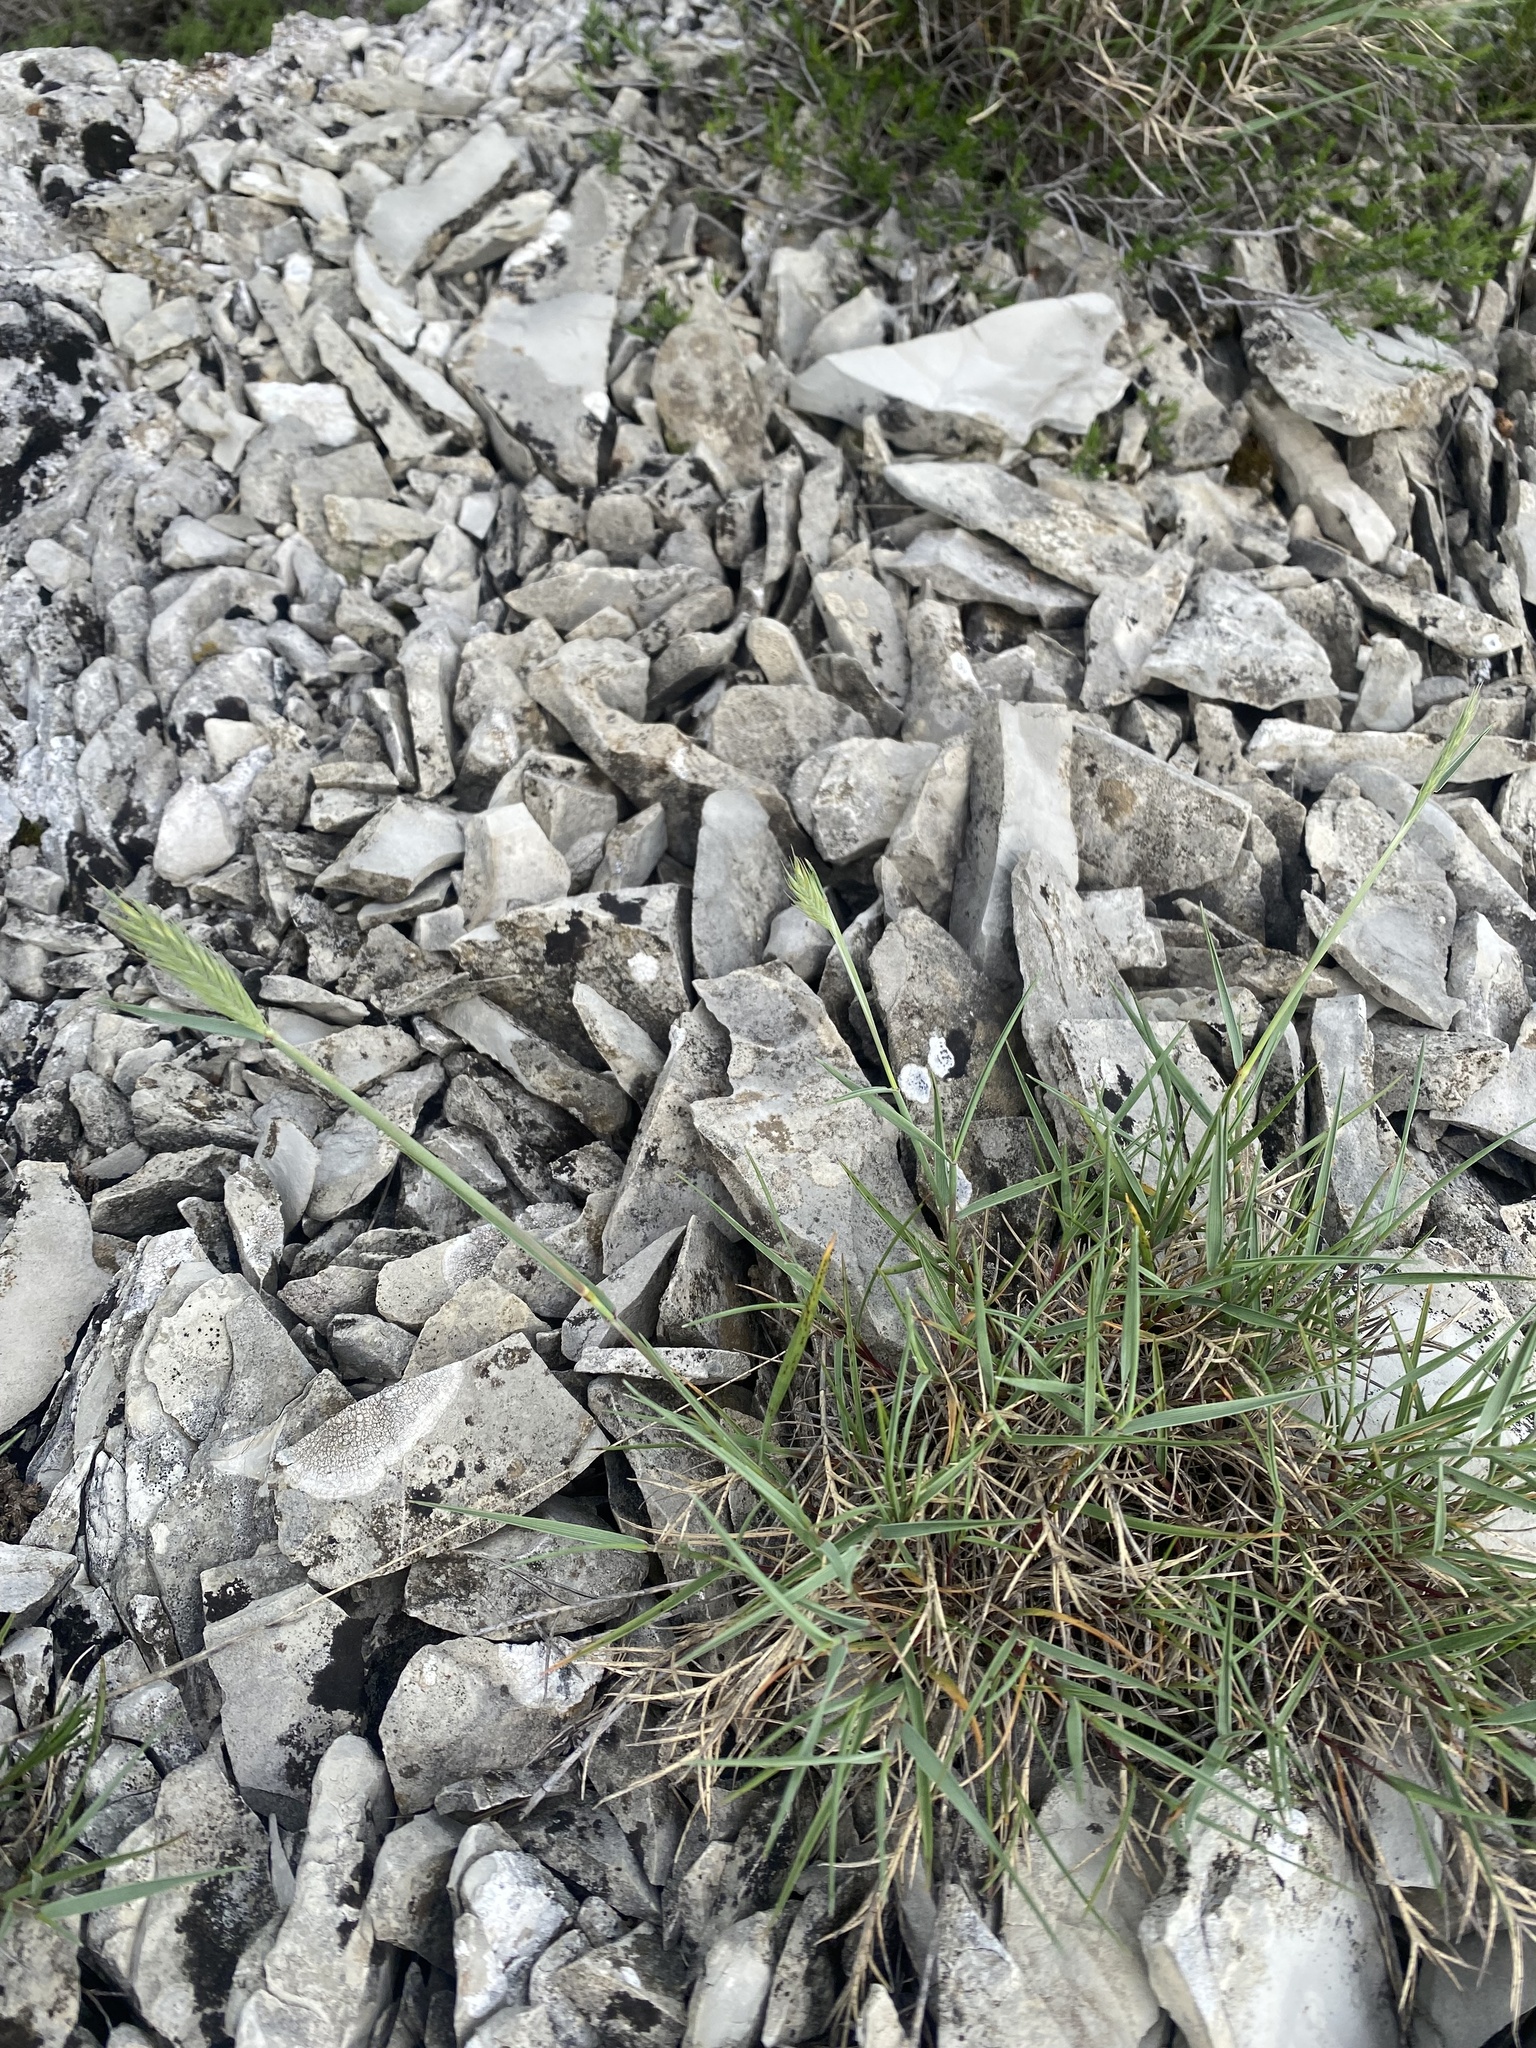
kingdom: Plantae
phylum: Tracheophyta
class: Liliopsida
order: Poales
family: Poaceae
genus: Agropyron
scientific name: Agropyron cristatum
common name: Crested wheatgrass
